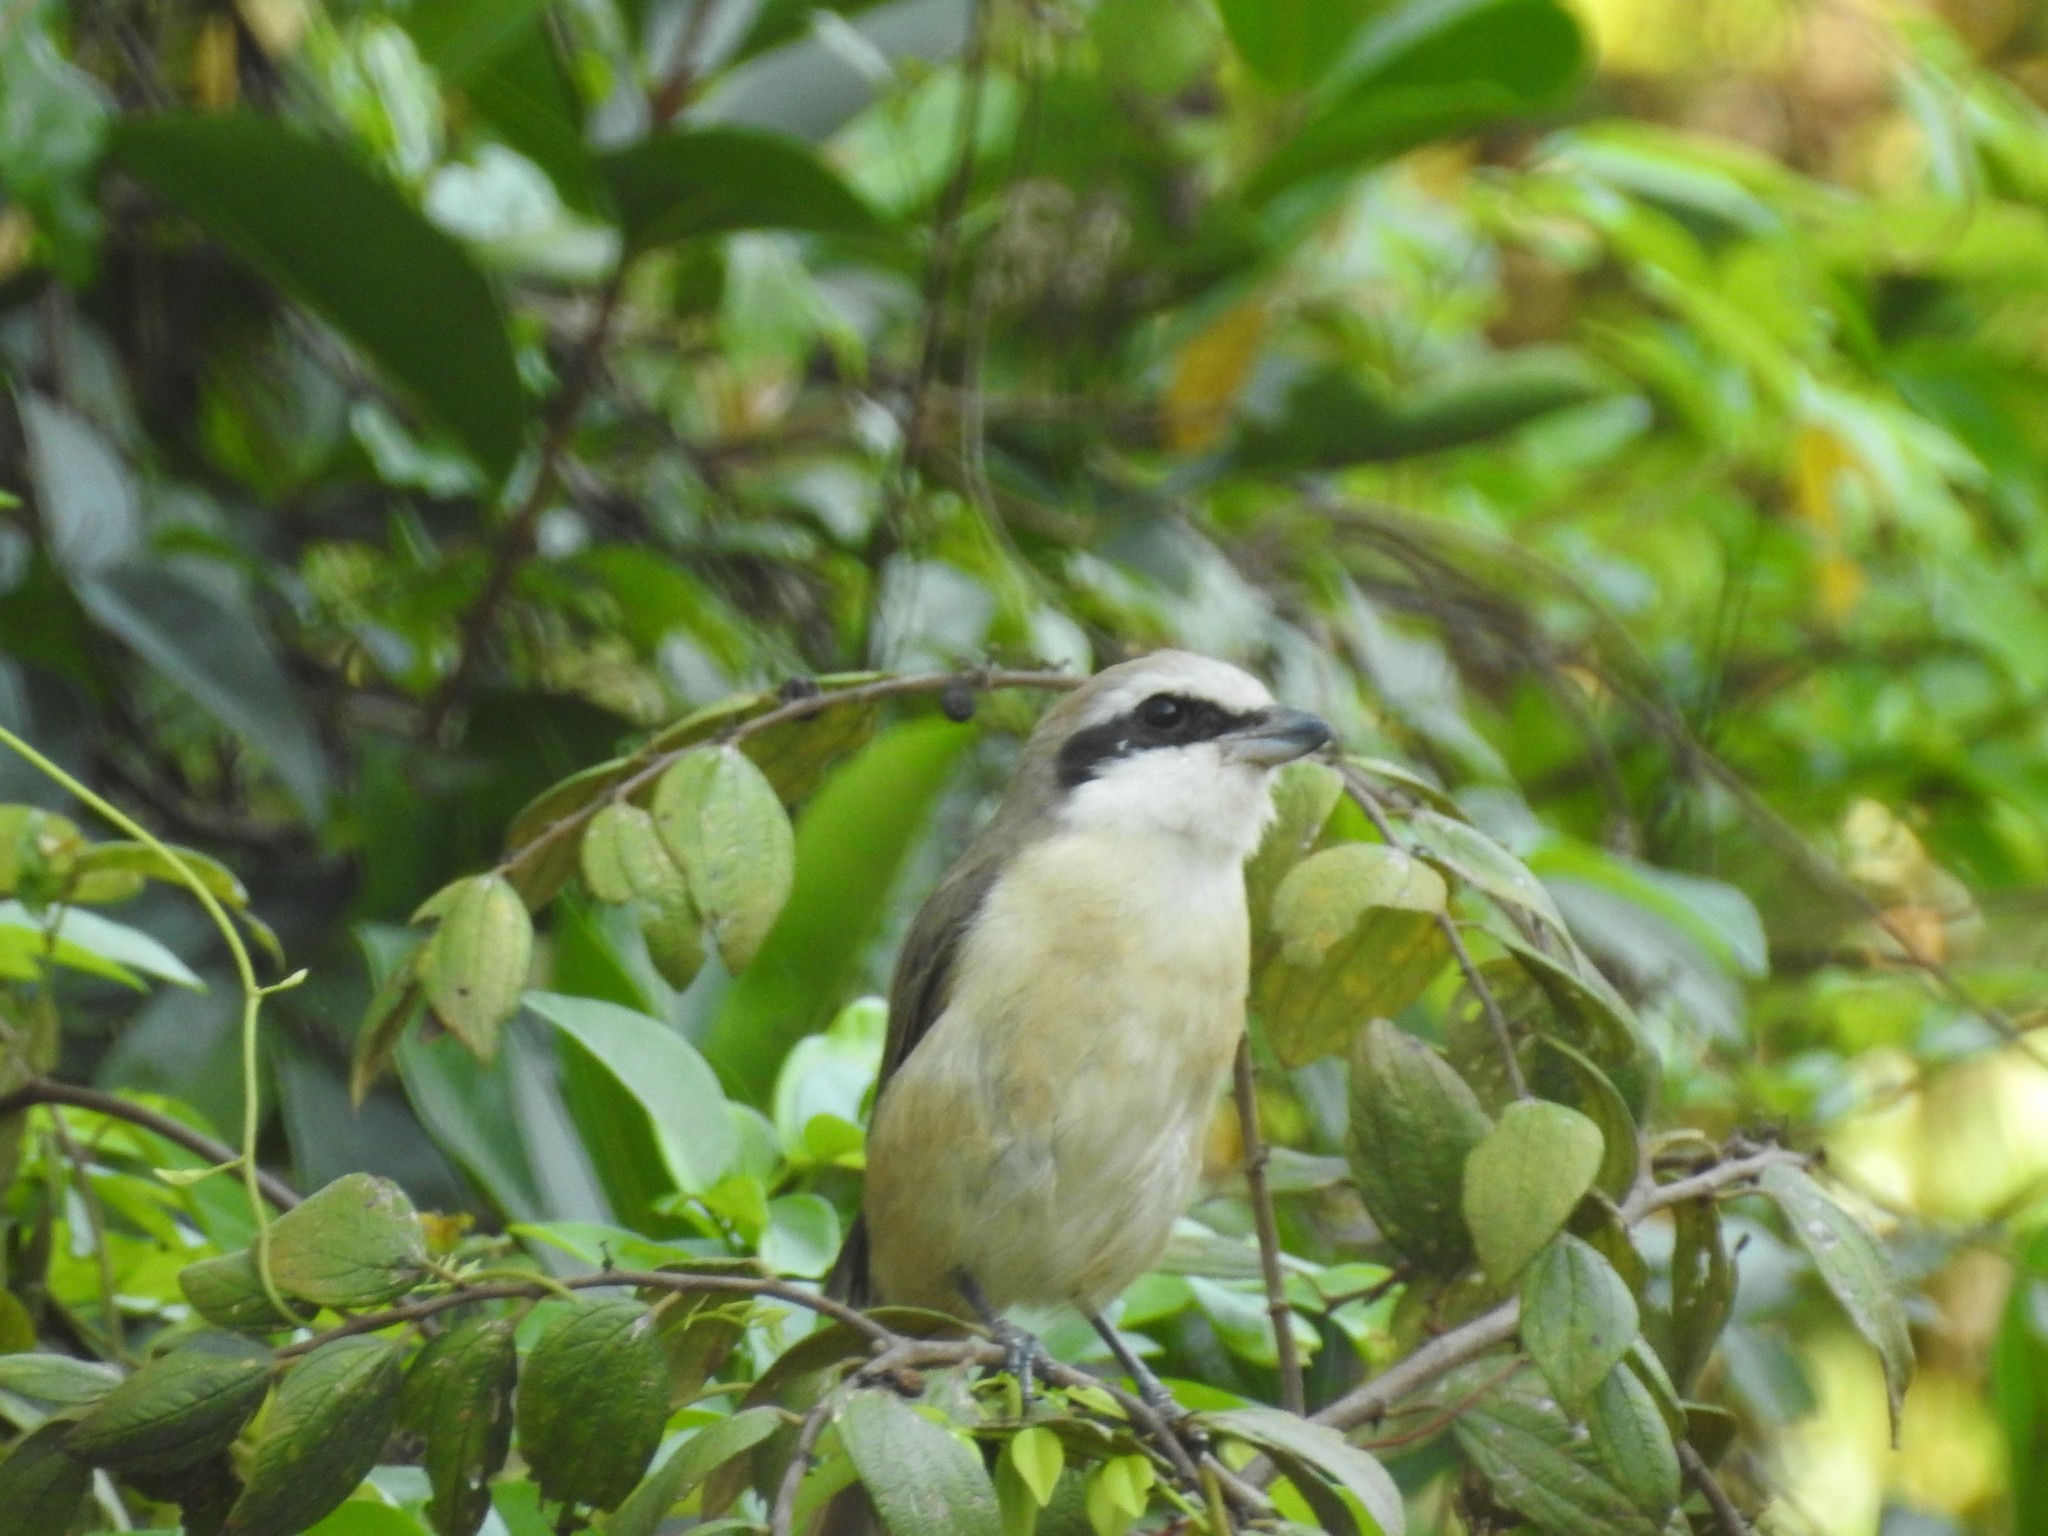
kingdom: Animalia
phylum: Chordata
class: Aves
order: Passeriformes
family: Laniidae
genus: Lanius
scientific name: Lanius schach
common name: Long-tailed shrike
